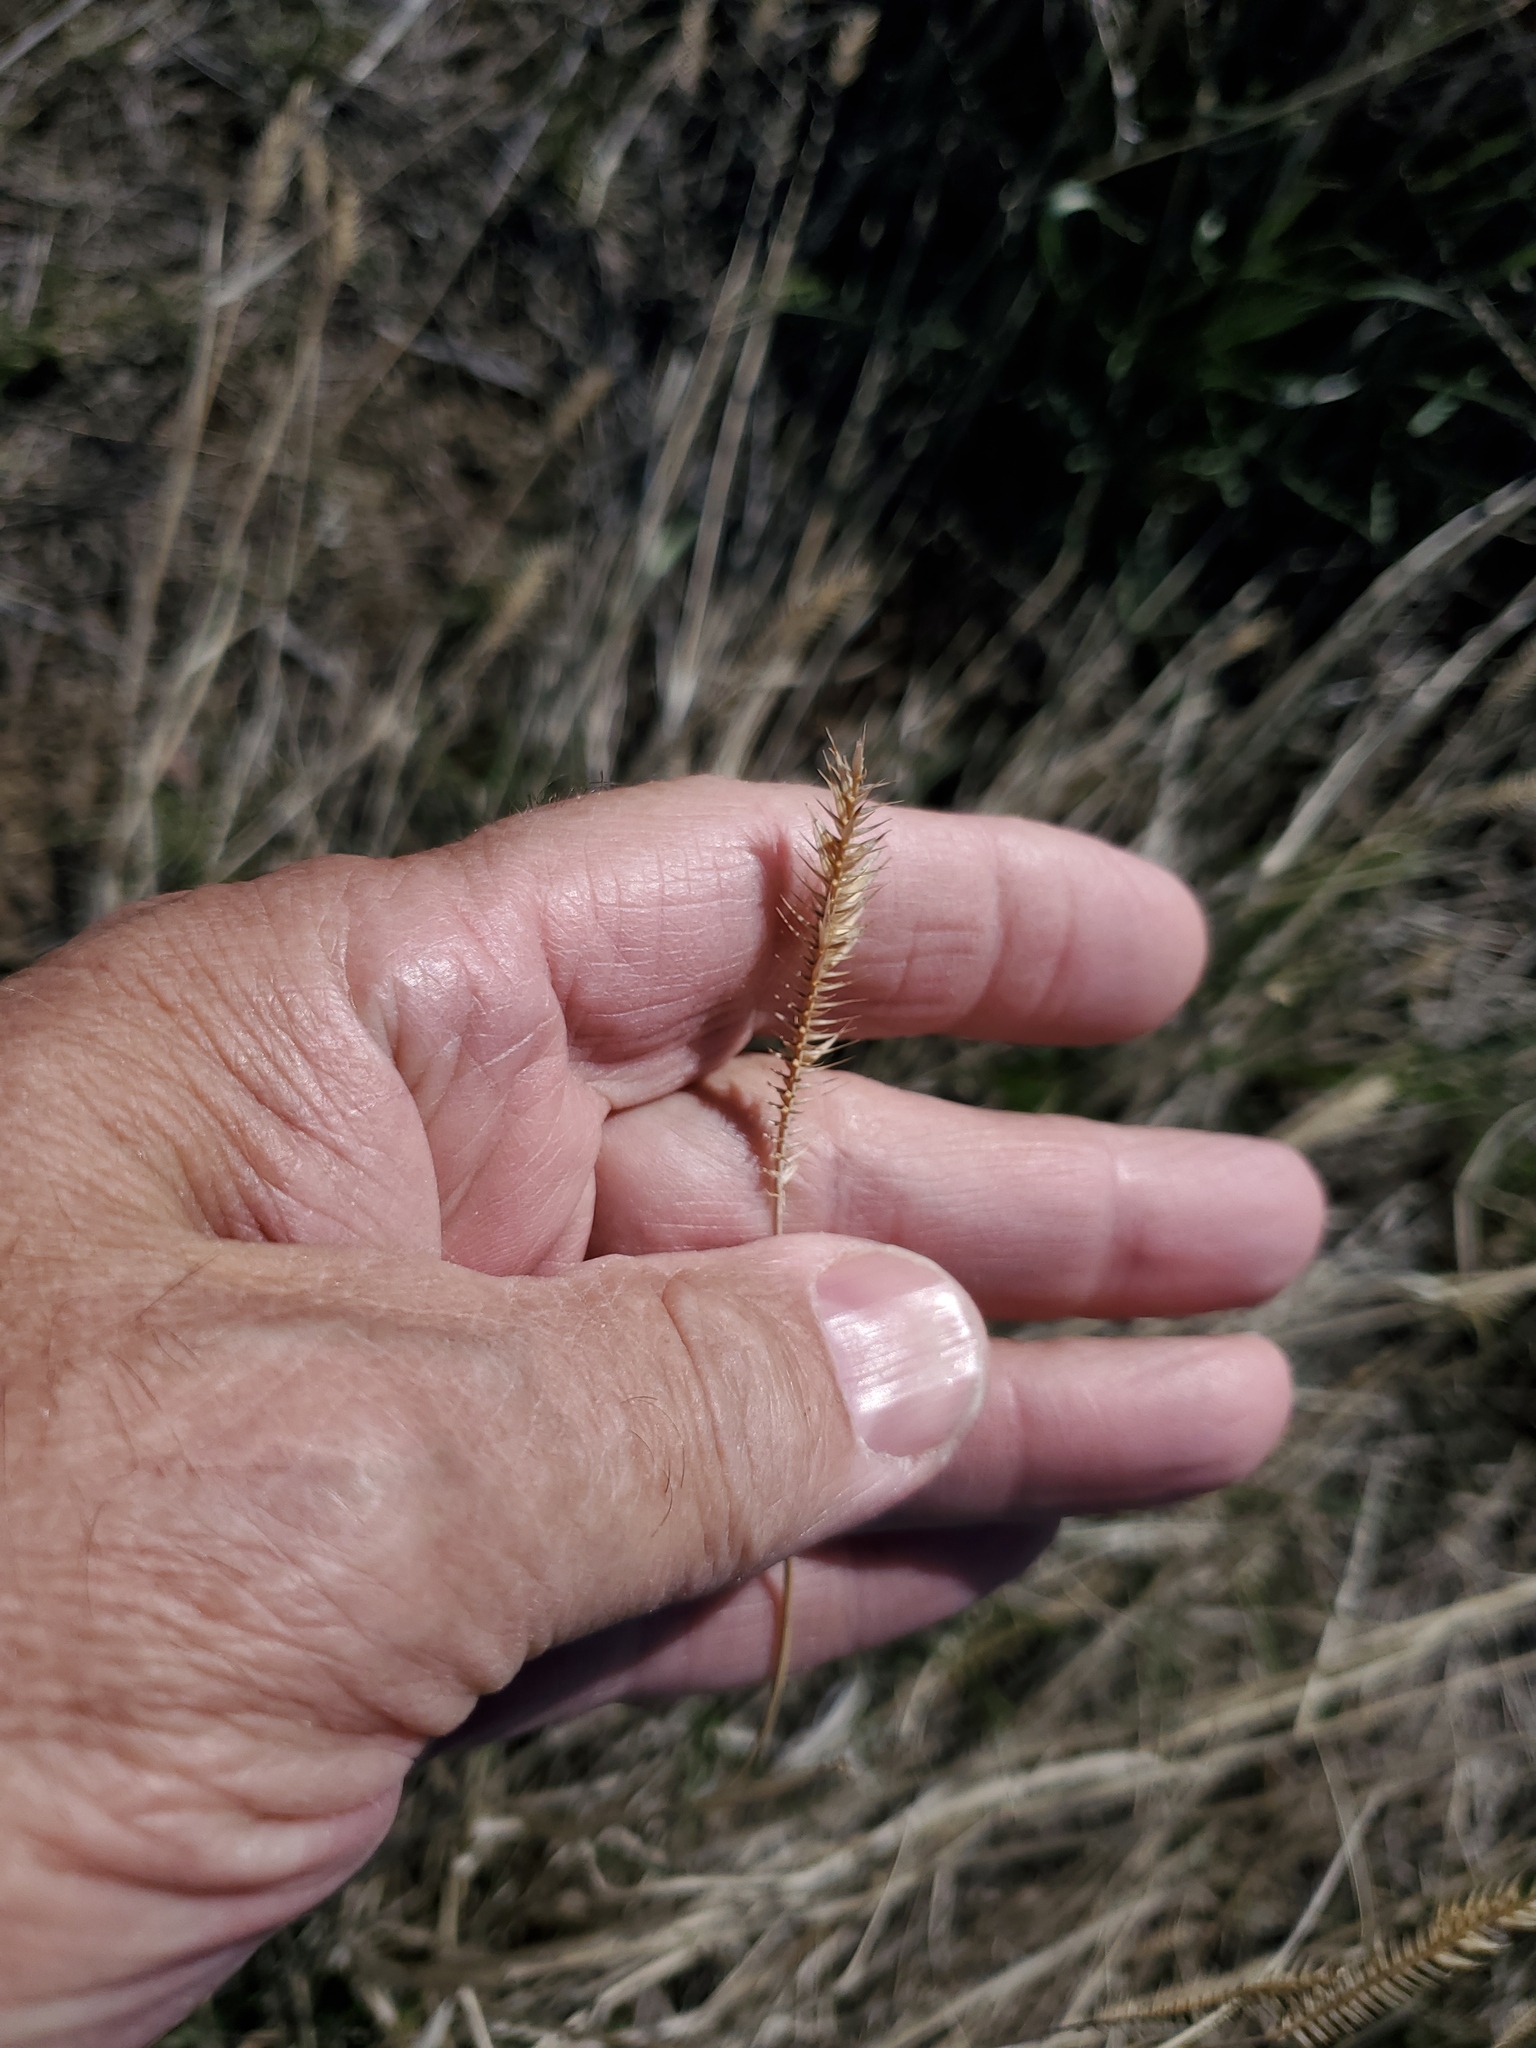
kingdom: Plantae
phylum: Tracheophyta
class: Liliopsida
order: Poales
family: Poaceae
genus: Agropyron
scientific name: Agropyron cristatum
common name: Crested wheatgrass
